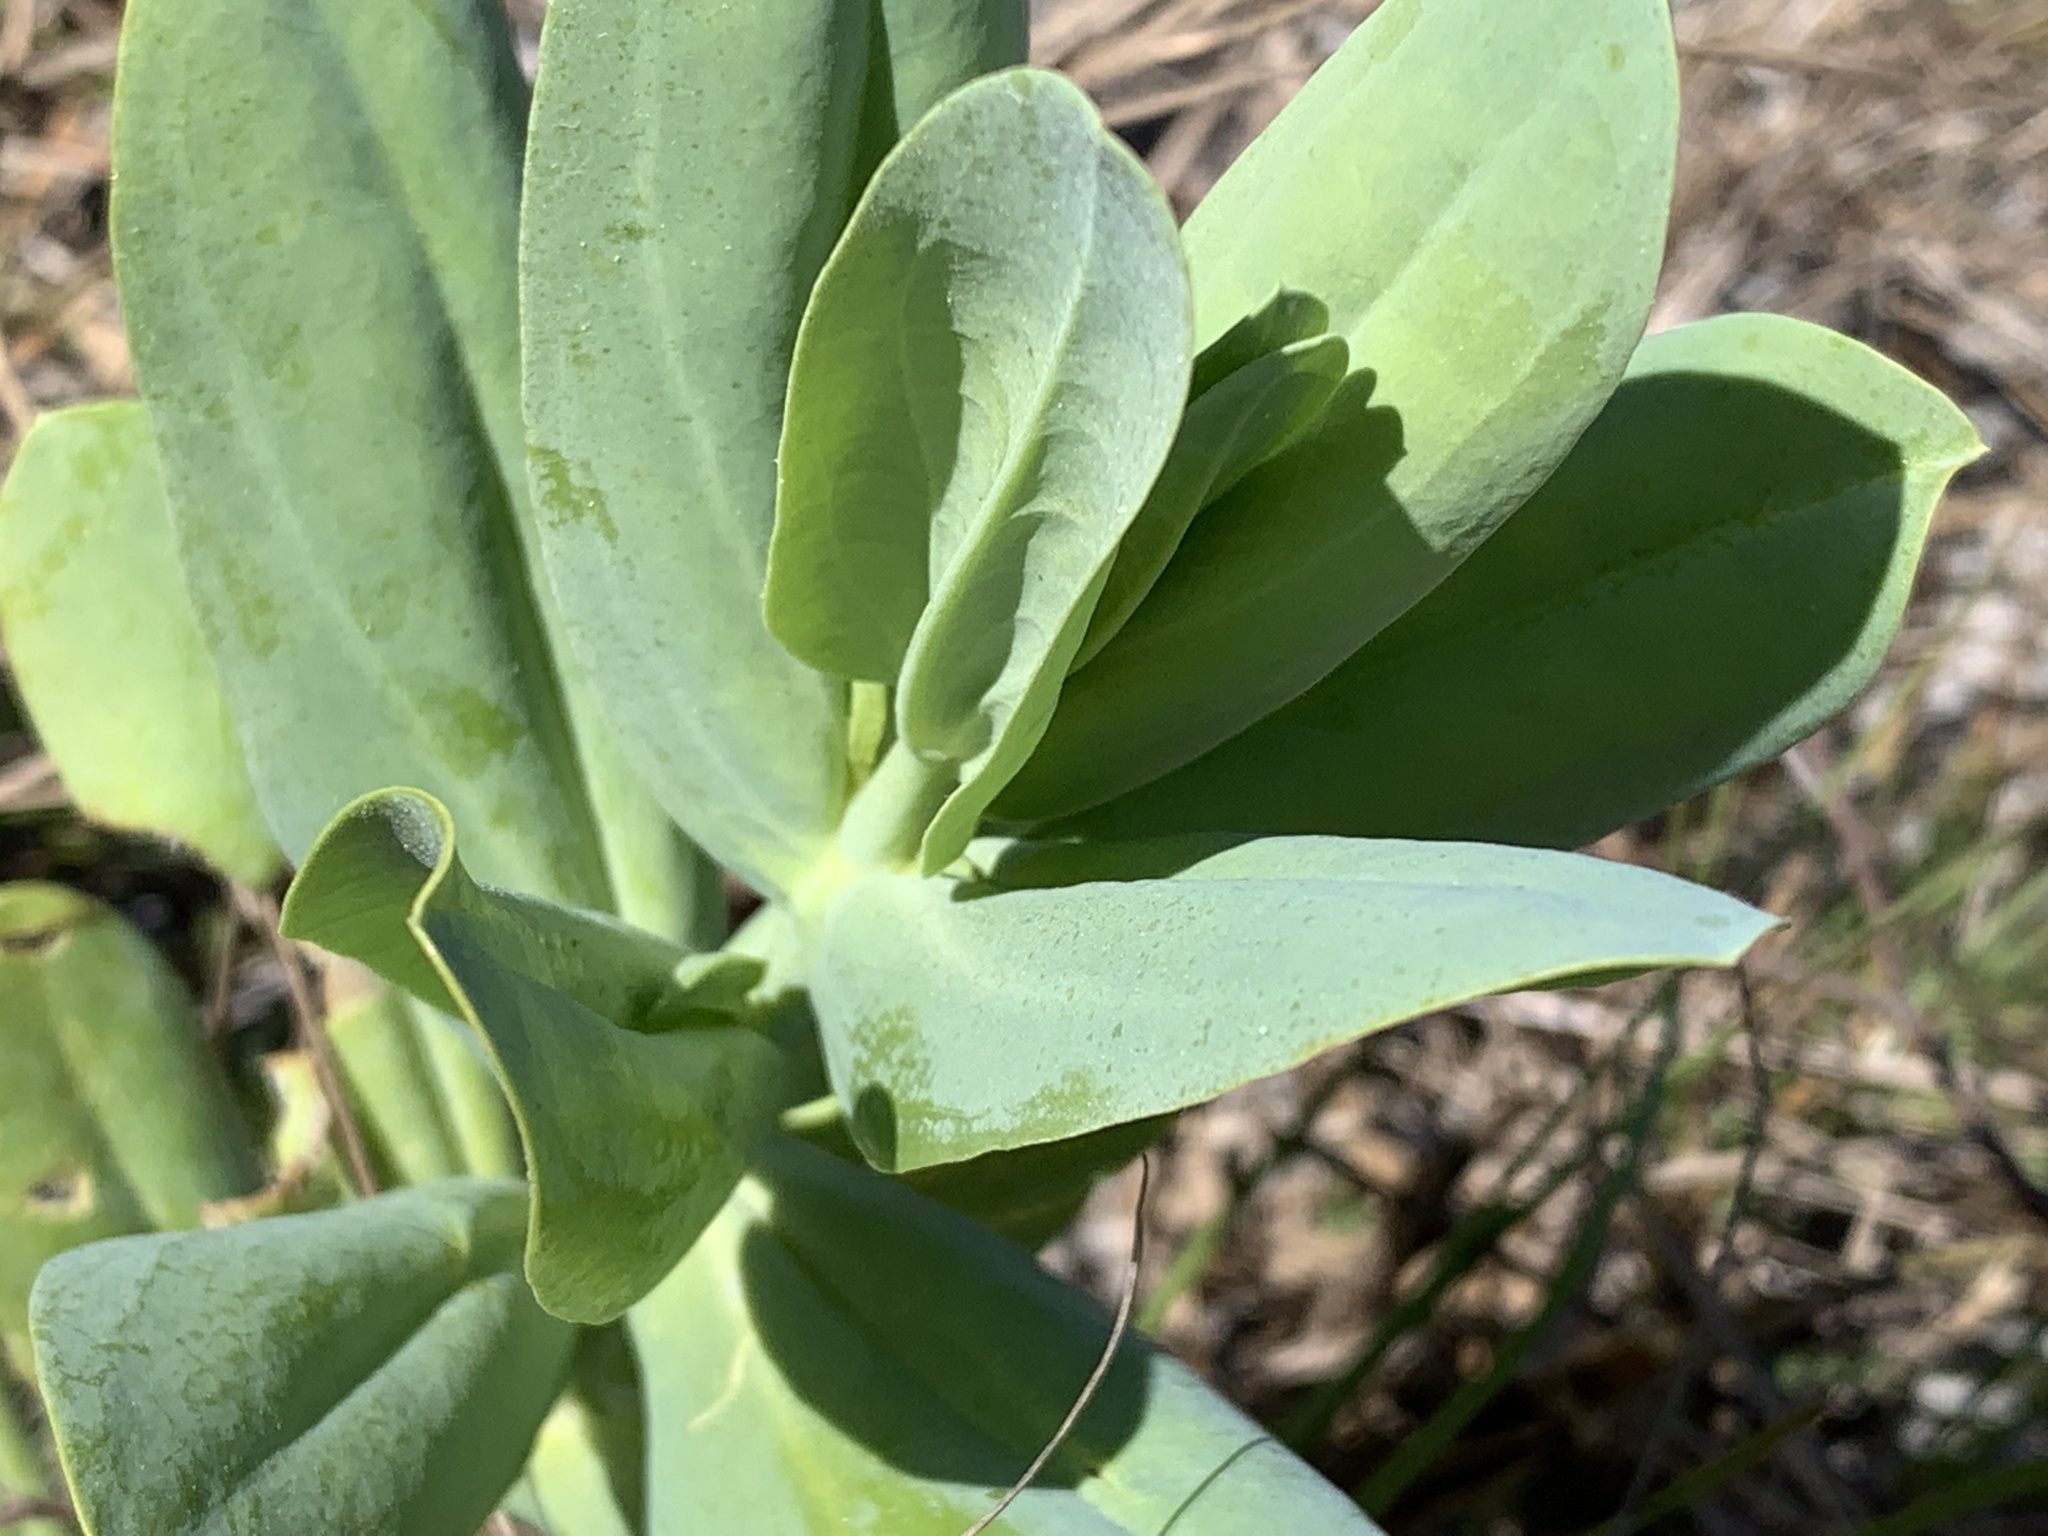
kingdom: Plantae
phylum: Tracheophyta
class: Magnoliopsida
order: Gentianales
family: Gentianaceae
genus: Eustoma
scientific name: Eustoma exaltatum
